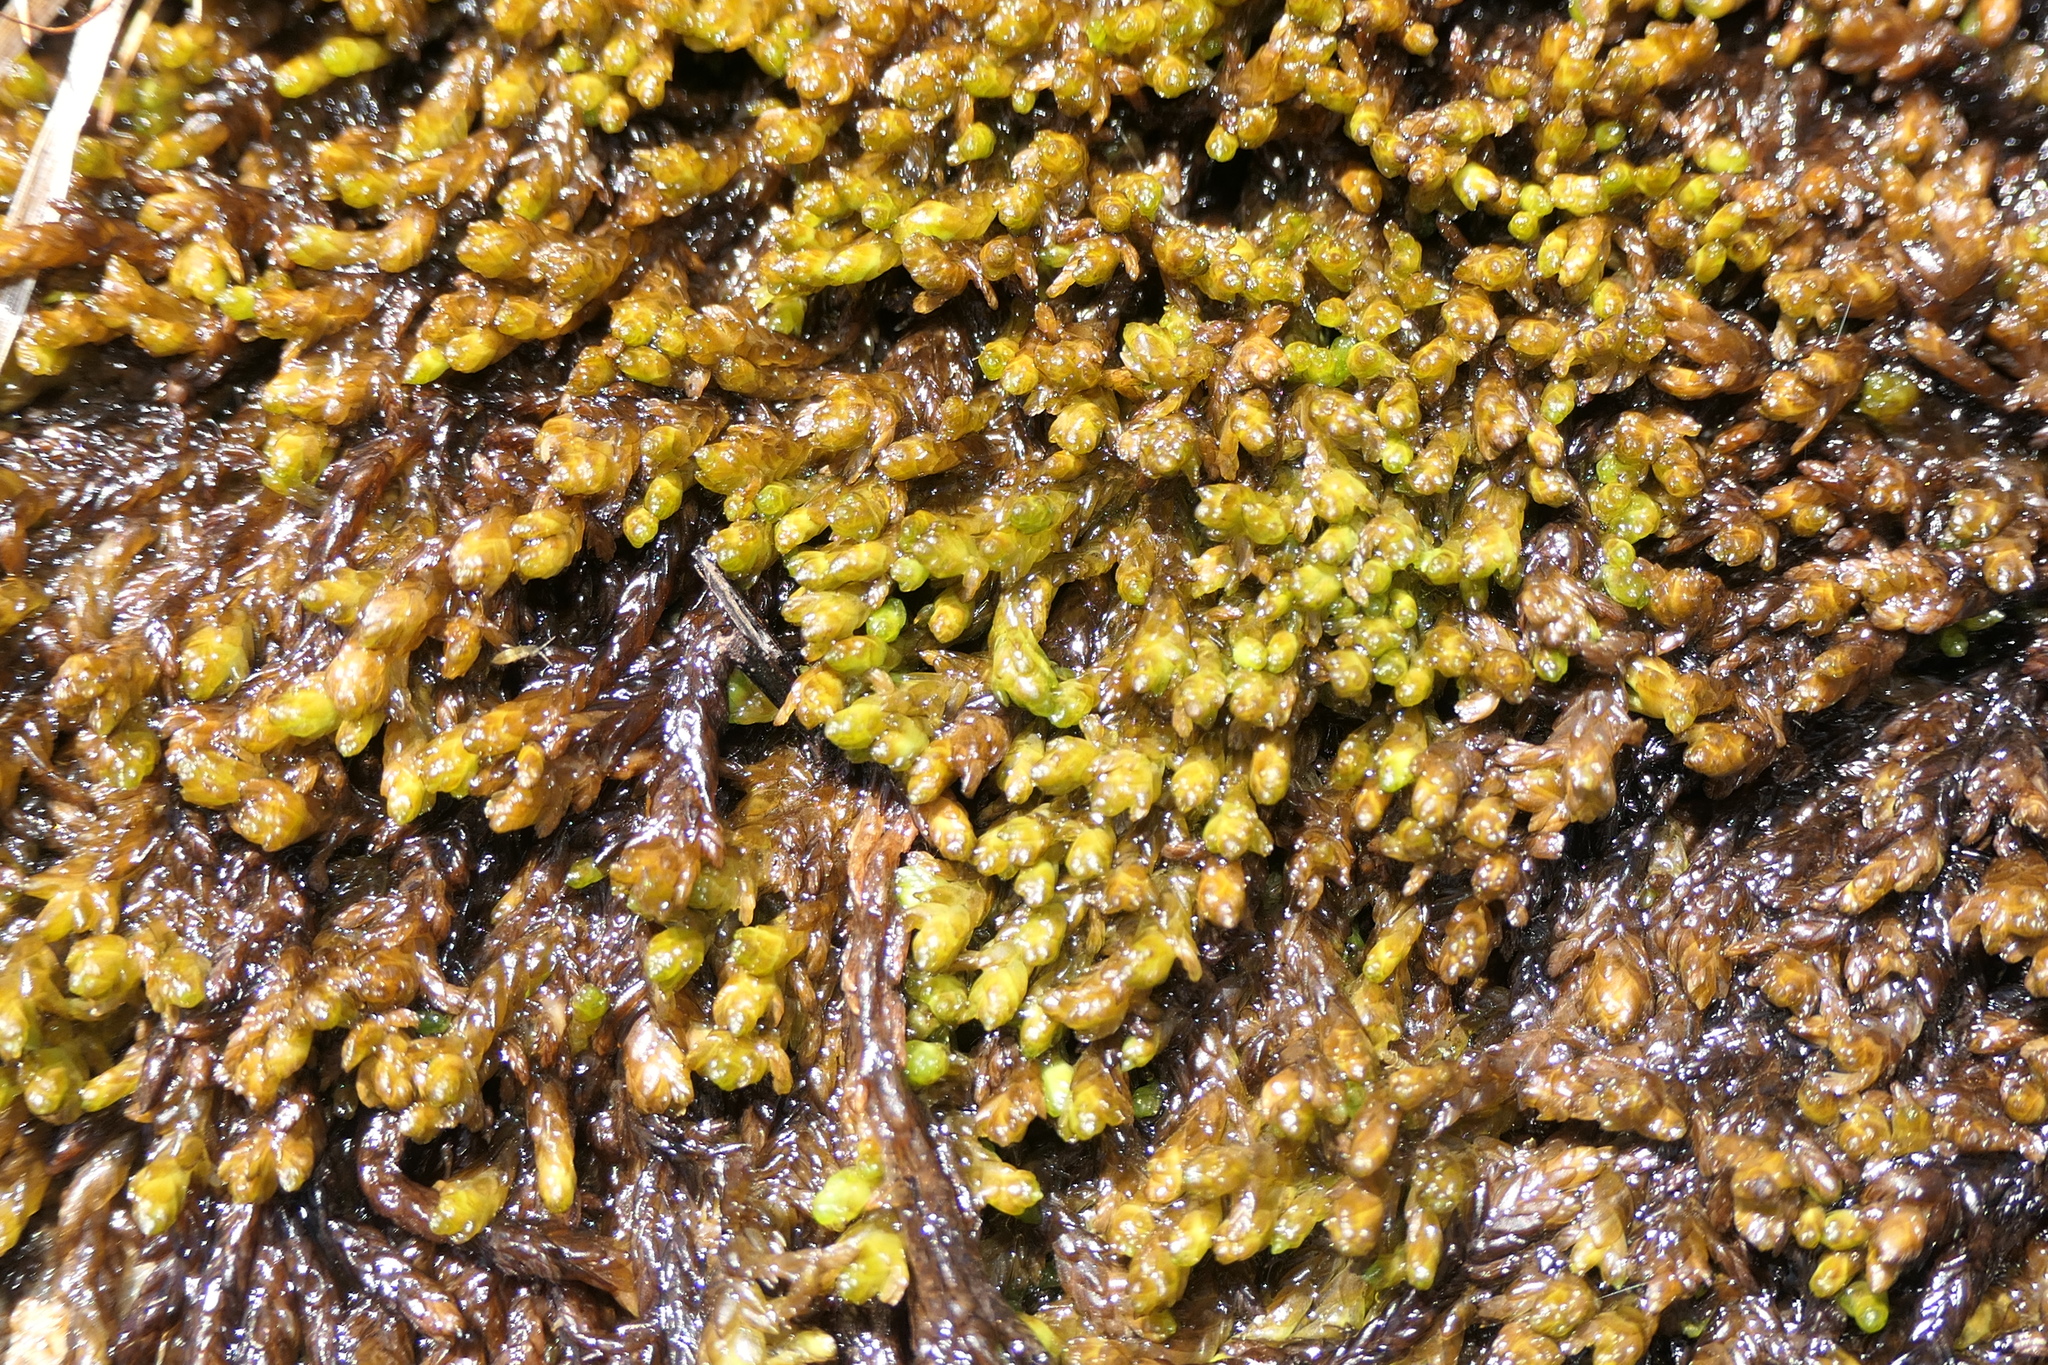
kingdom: Plantae
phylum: Bryophyta
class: Sphagnopsida
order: Sphagnales
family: Sphagnaceae
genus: Sphagnum
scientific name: Sphagnum pylaesii
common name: Pylaie's peat moss
